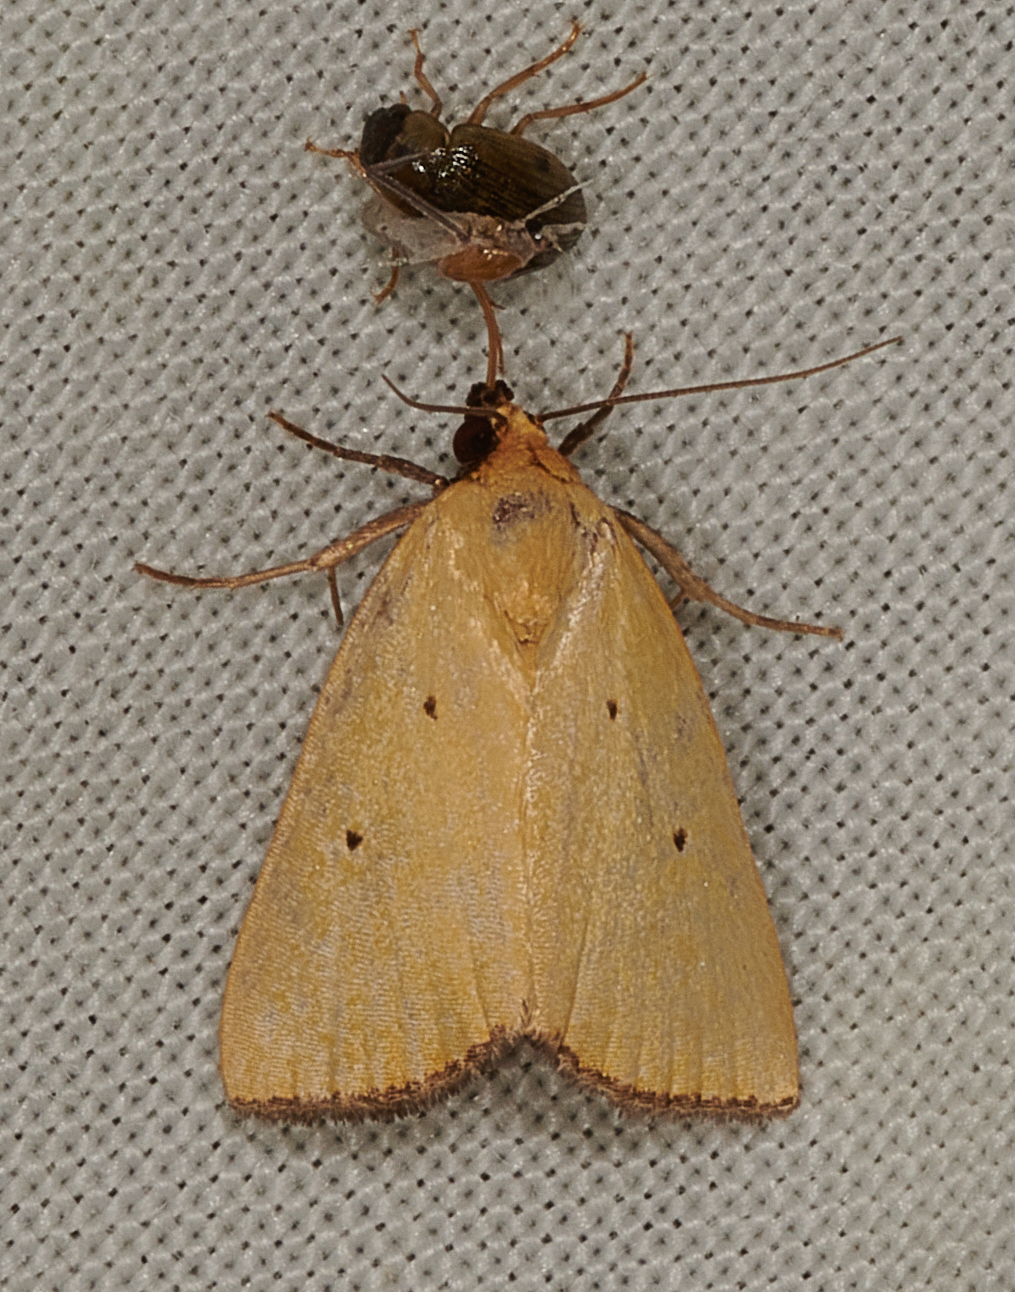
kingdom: Animalia
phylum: Arthropoda
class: Insecta
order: Lepidoptera
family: Noctuidae
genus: Marimatha
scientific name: Marimatha nigrofimbria
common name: Black-bordered lemon moth
